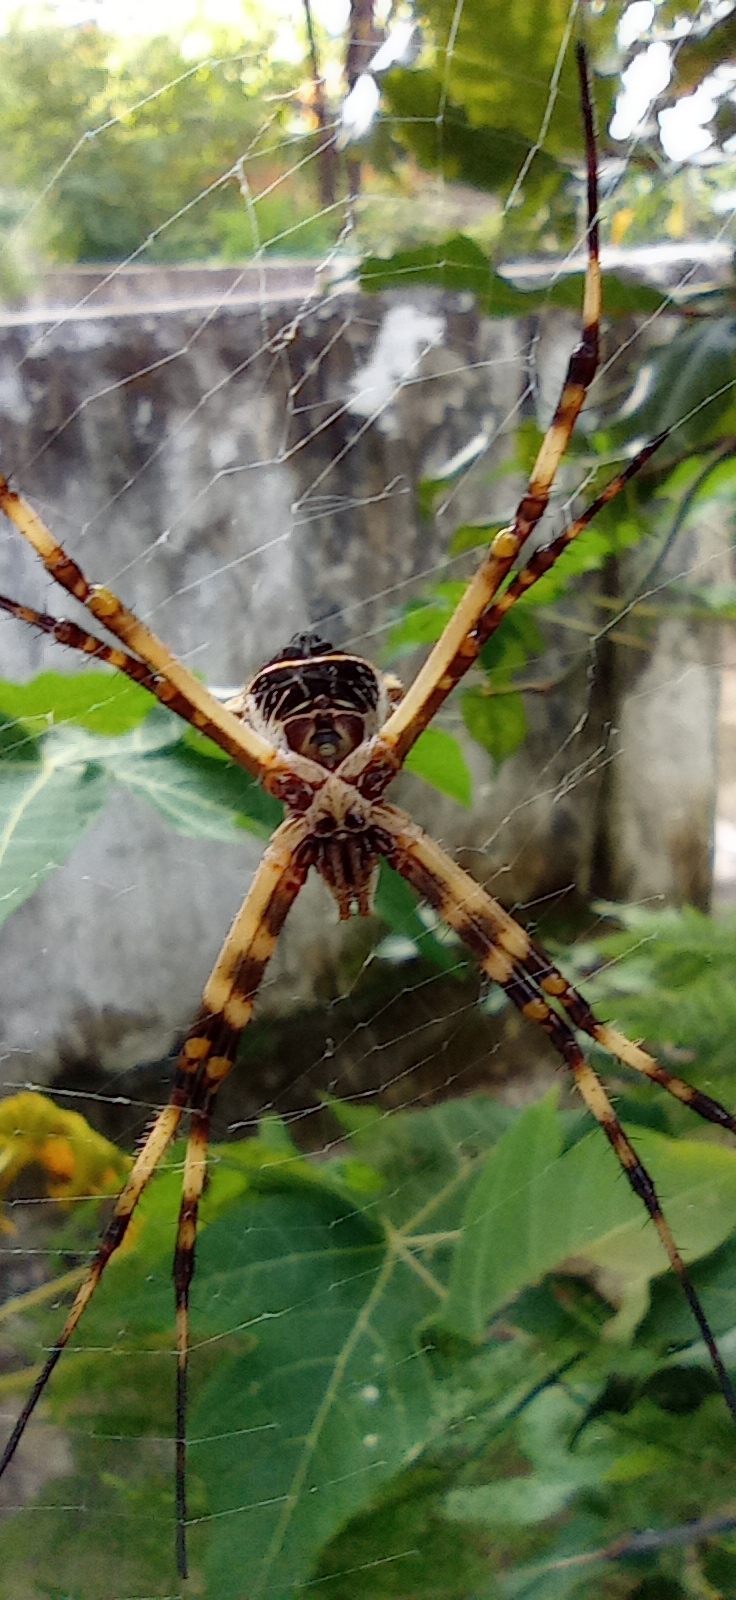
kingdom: Animalia
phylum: Arthropoda
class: Arachnida
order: Araneae
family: Araneidae
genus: Argiope
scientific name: Argiope argentata
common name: Orb weavers
